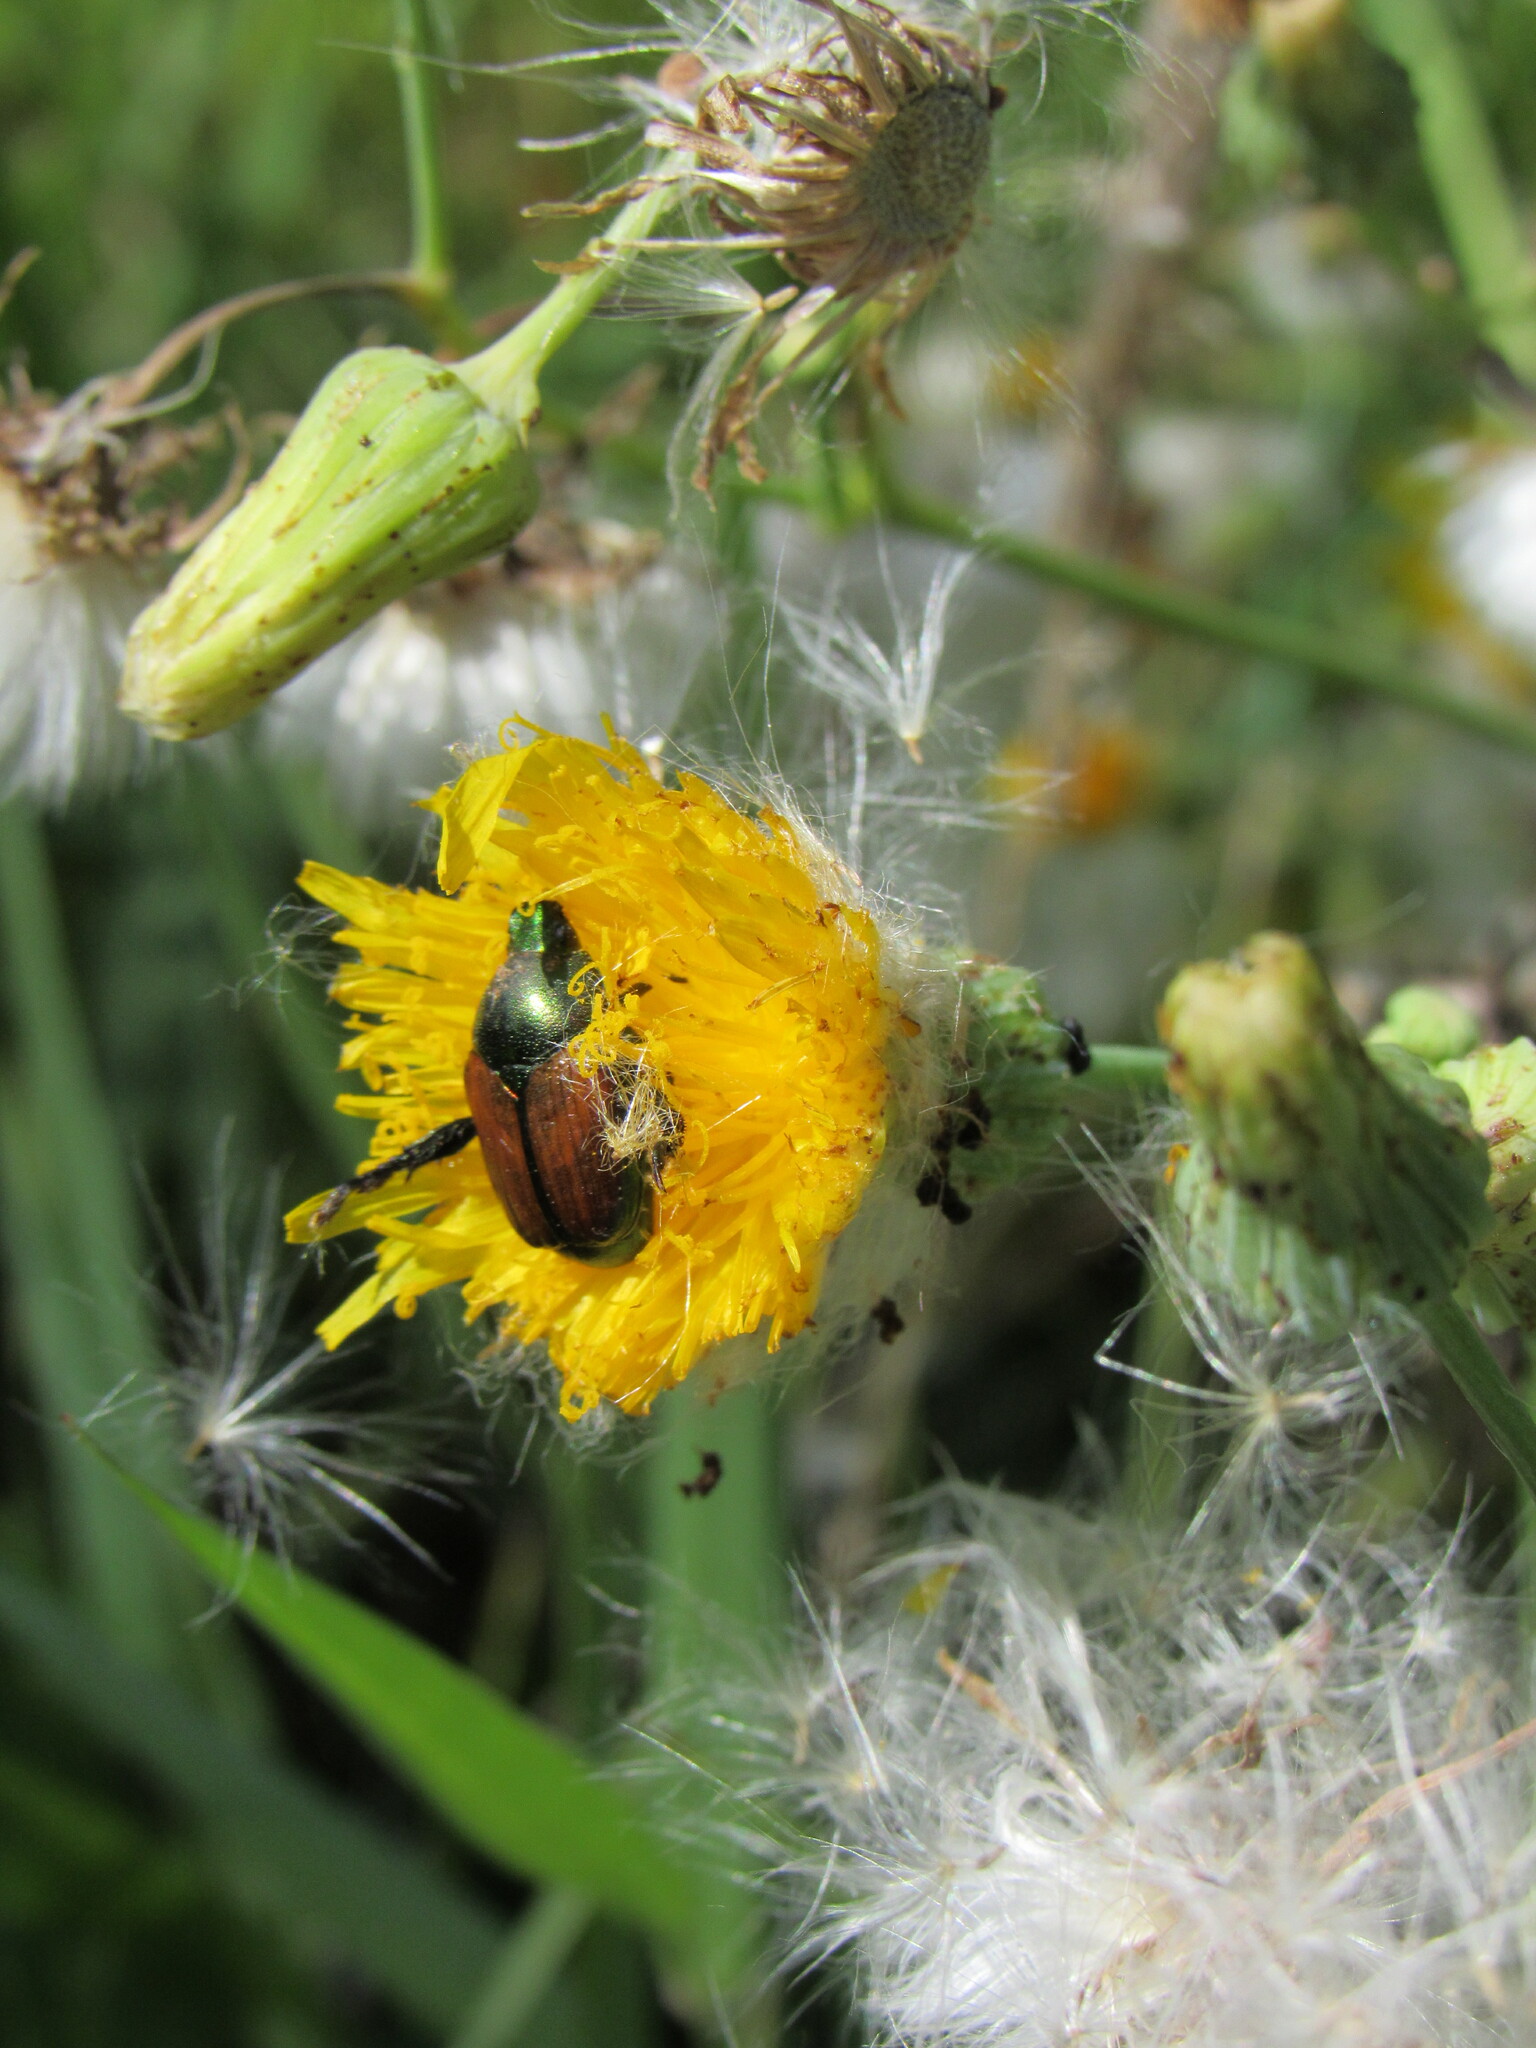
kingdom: Animalia
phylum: Arthropoda
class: Insecta
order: Coleoptera
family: Scarabaeidae
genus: Popillia
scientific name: Popillia japonica
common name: Japanese beetle
